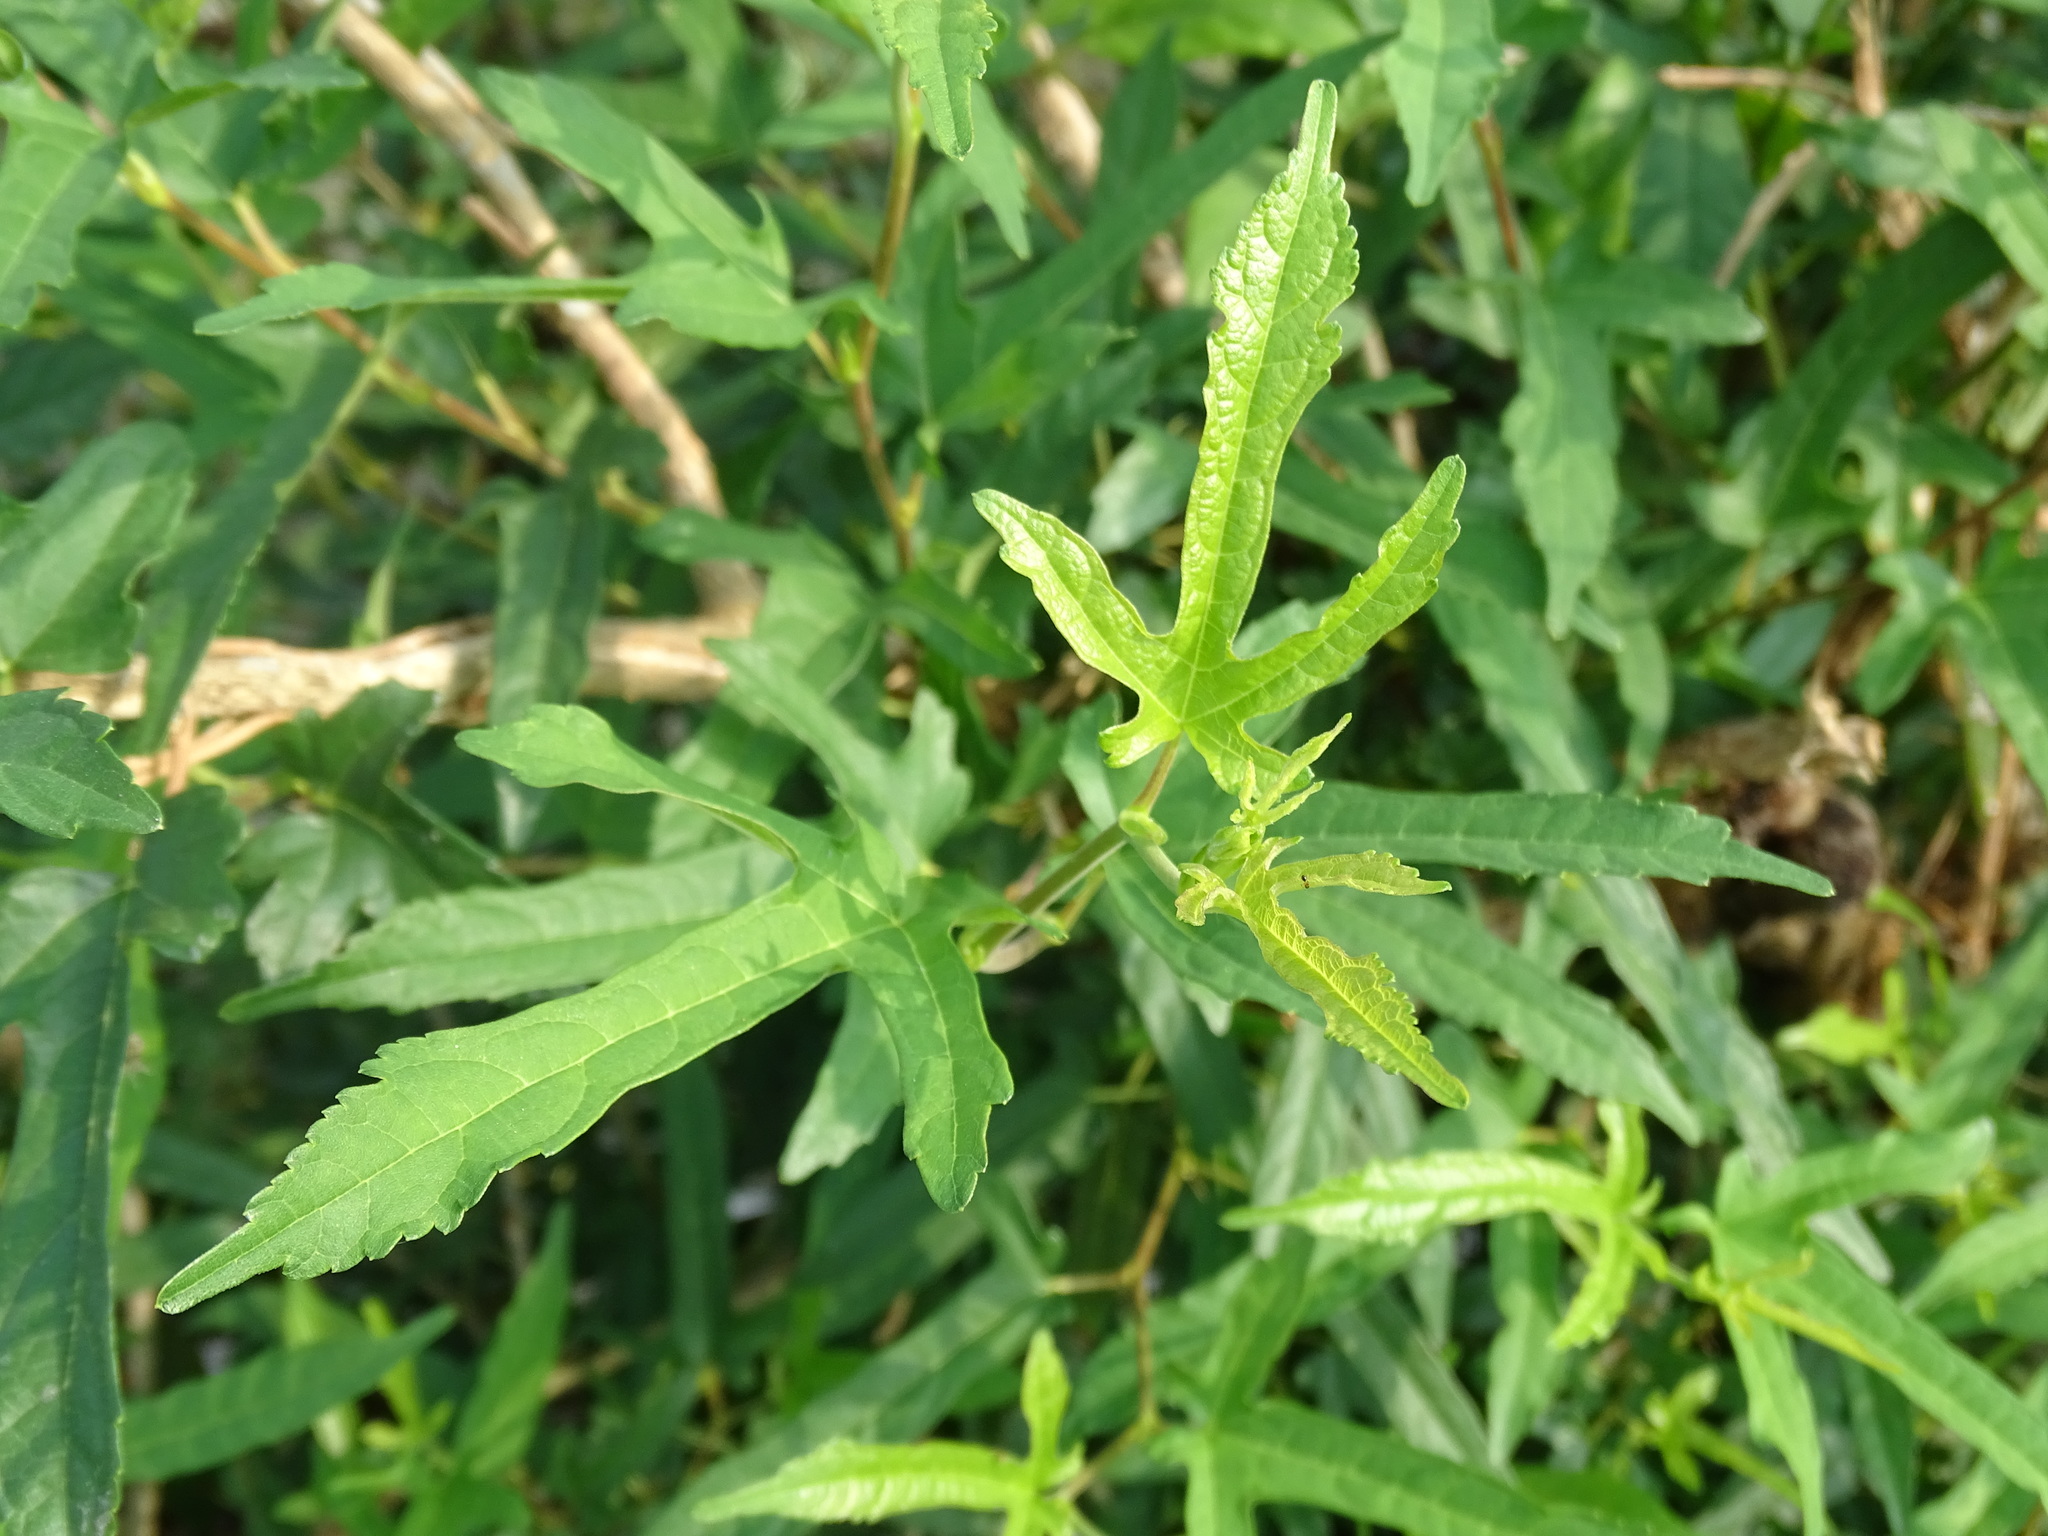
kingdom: Plantae
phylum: Tracheophyta
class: Magnoliopsida
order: Rosales
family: Moraceae
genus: Morus
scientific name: Morus indica
